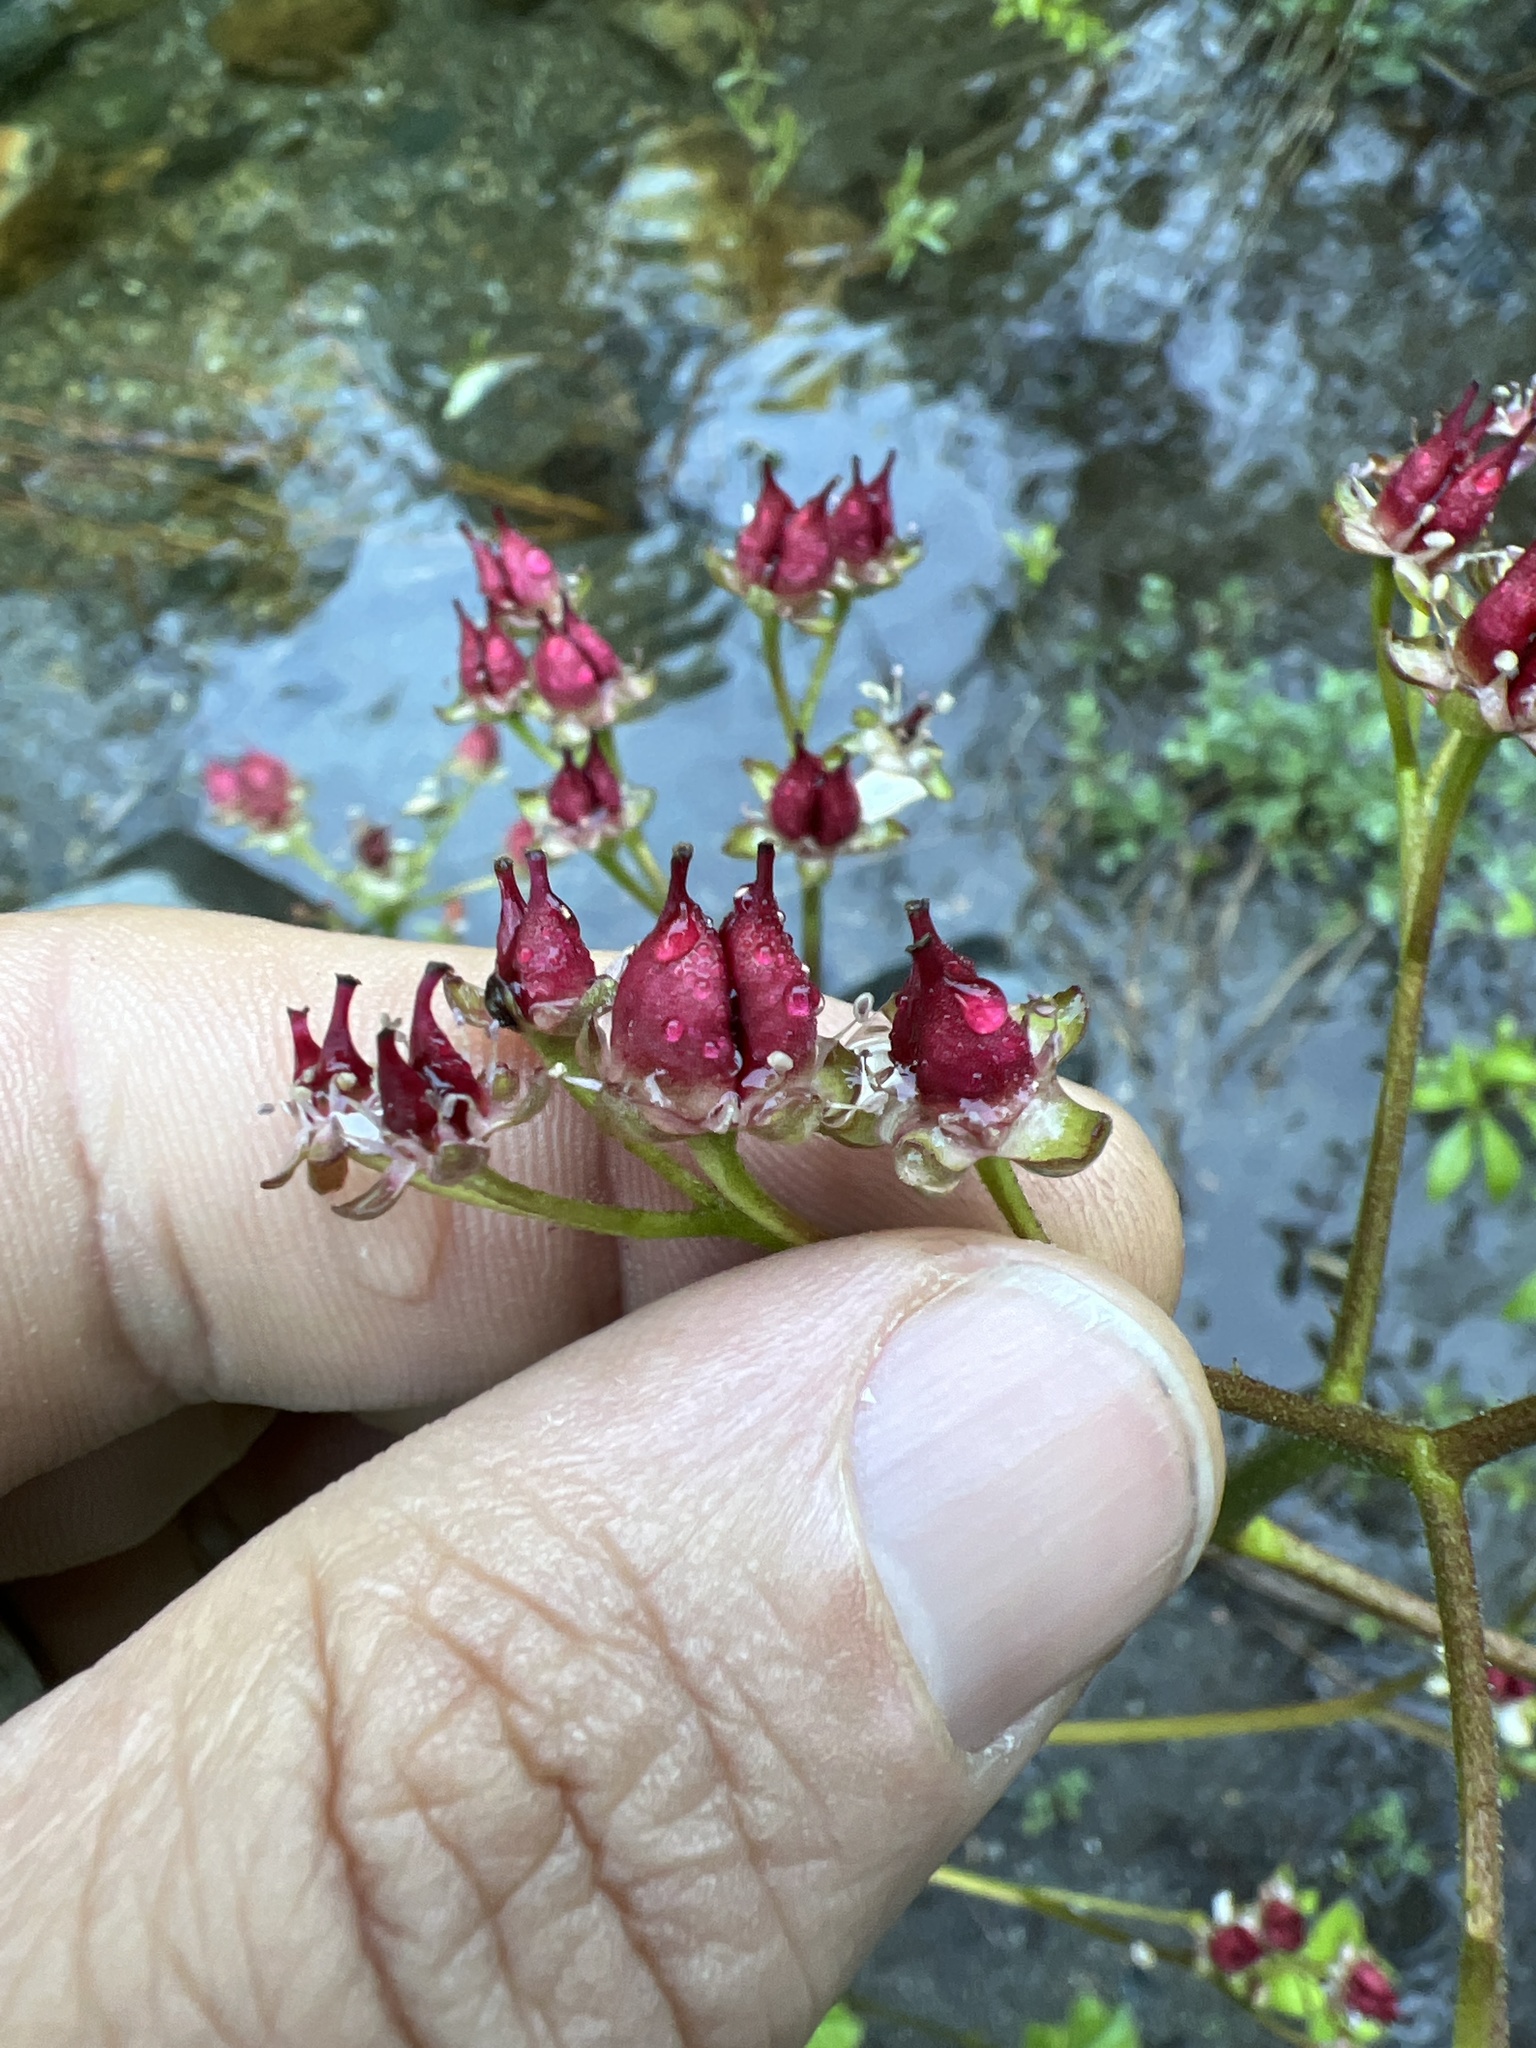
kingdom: Plantae
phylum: Tracheophyta
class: Magnoliopsida
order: Saxifragales
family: Saxifragaceae
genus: Darmera
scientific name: Darmera peltata
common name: Indian-rhubarb
